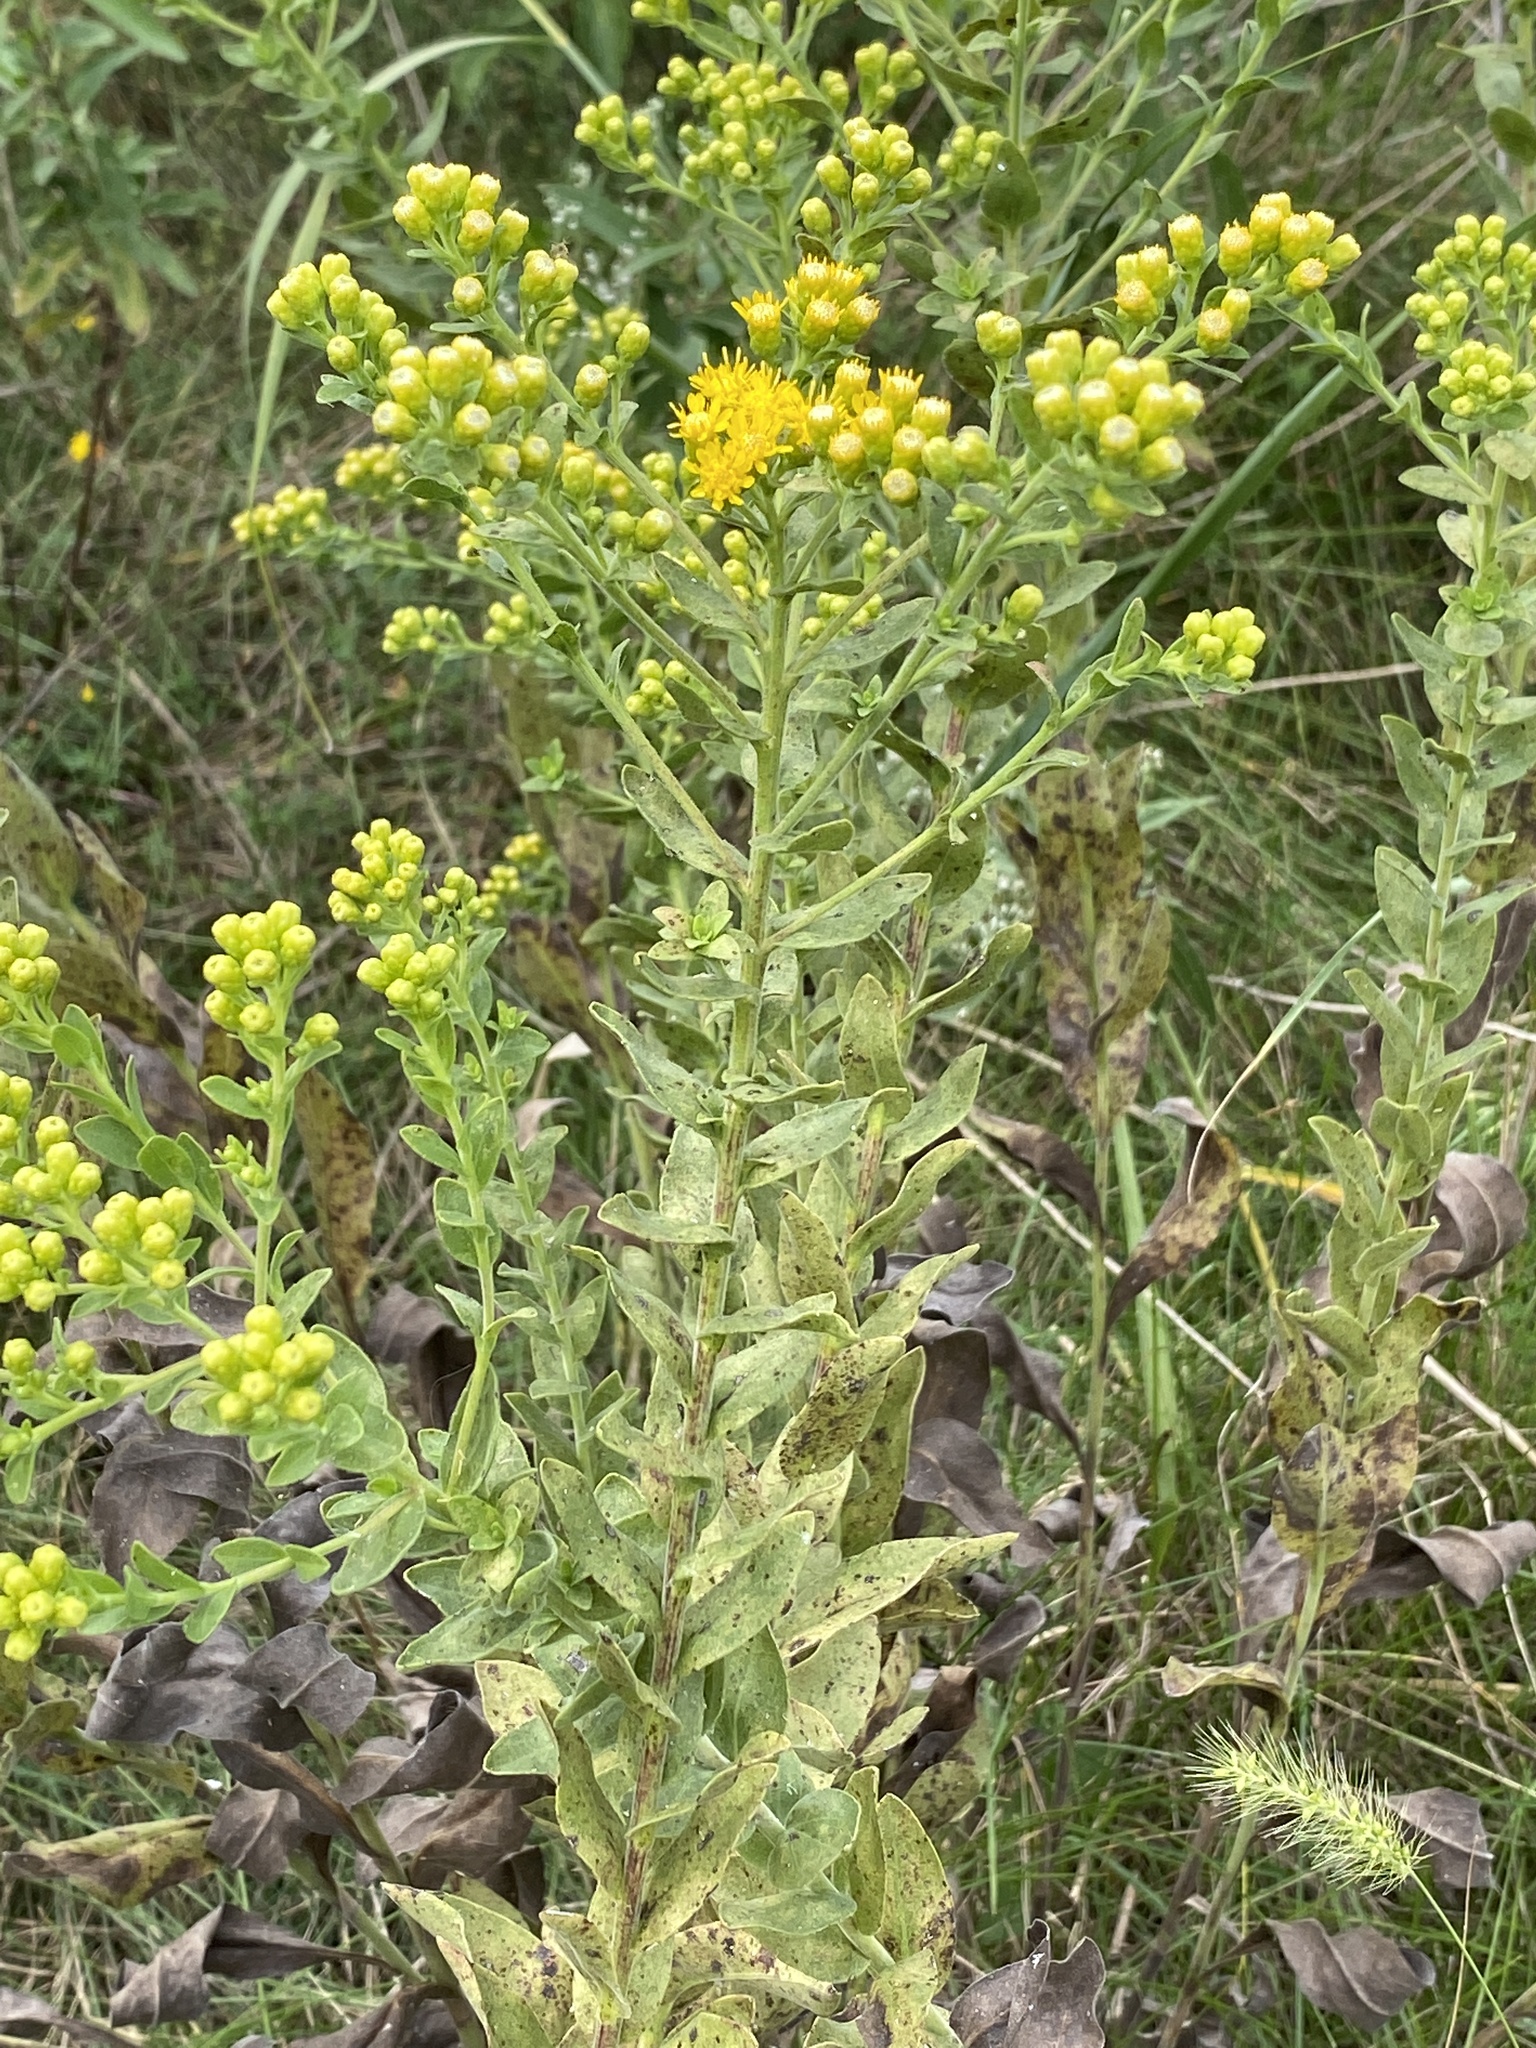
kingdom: Plantae
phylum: Tracheophyta
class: Magnoliopsida
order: Asterales
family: Asteraceae
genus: Solidago
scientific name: Solidago rigida
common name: Rigid goldenrod
